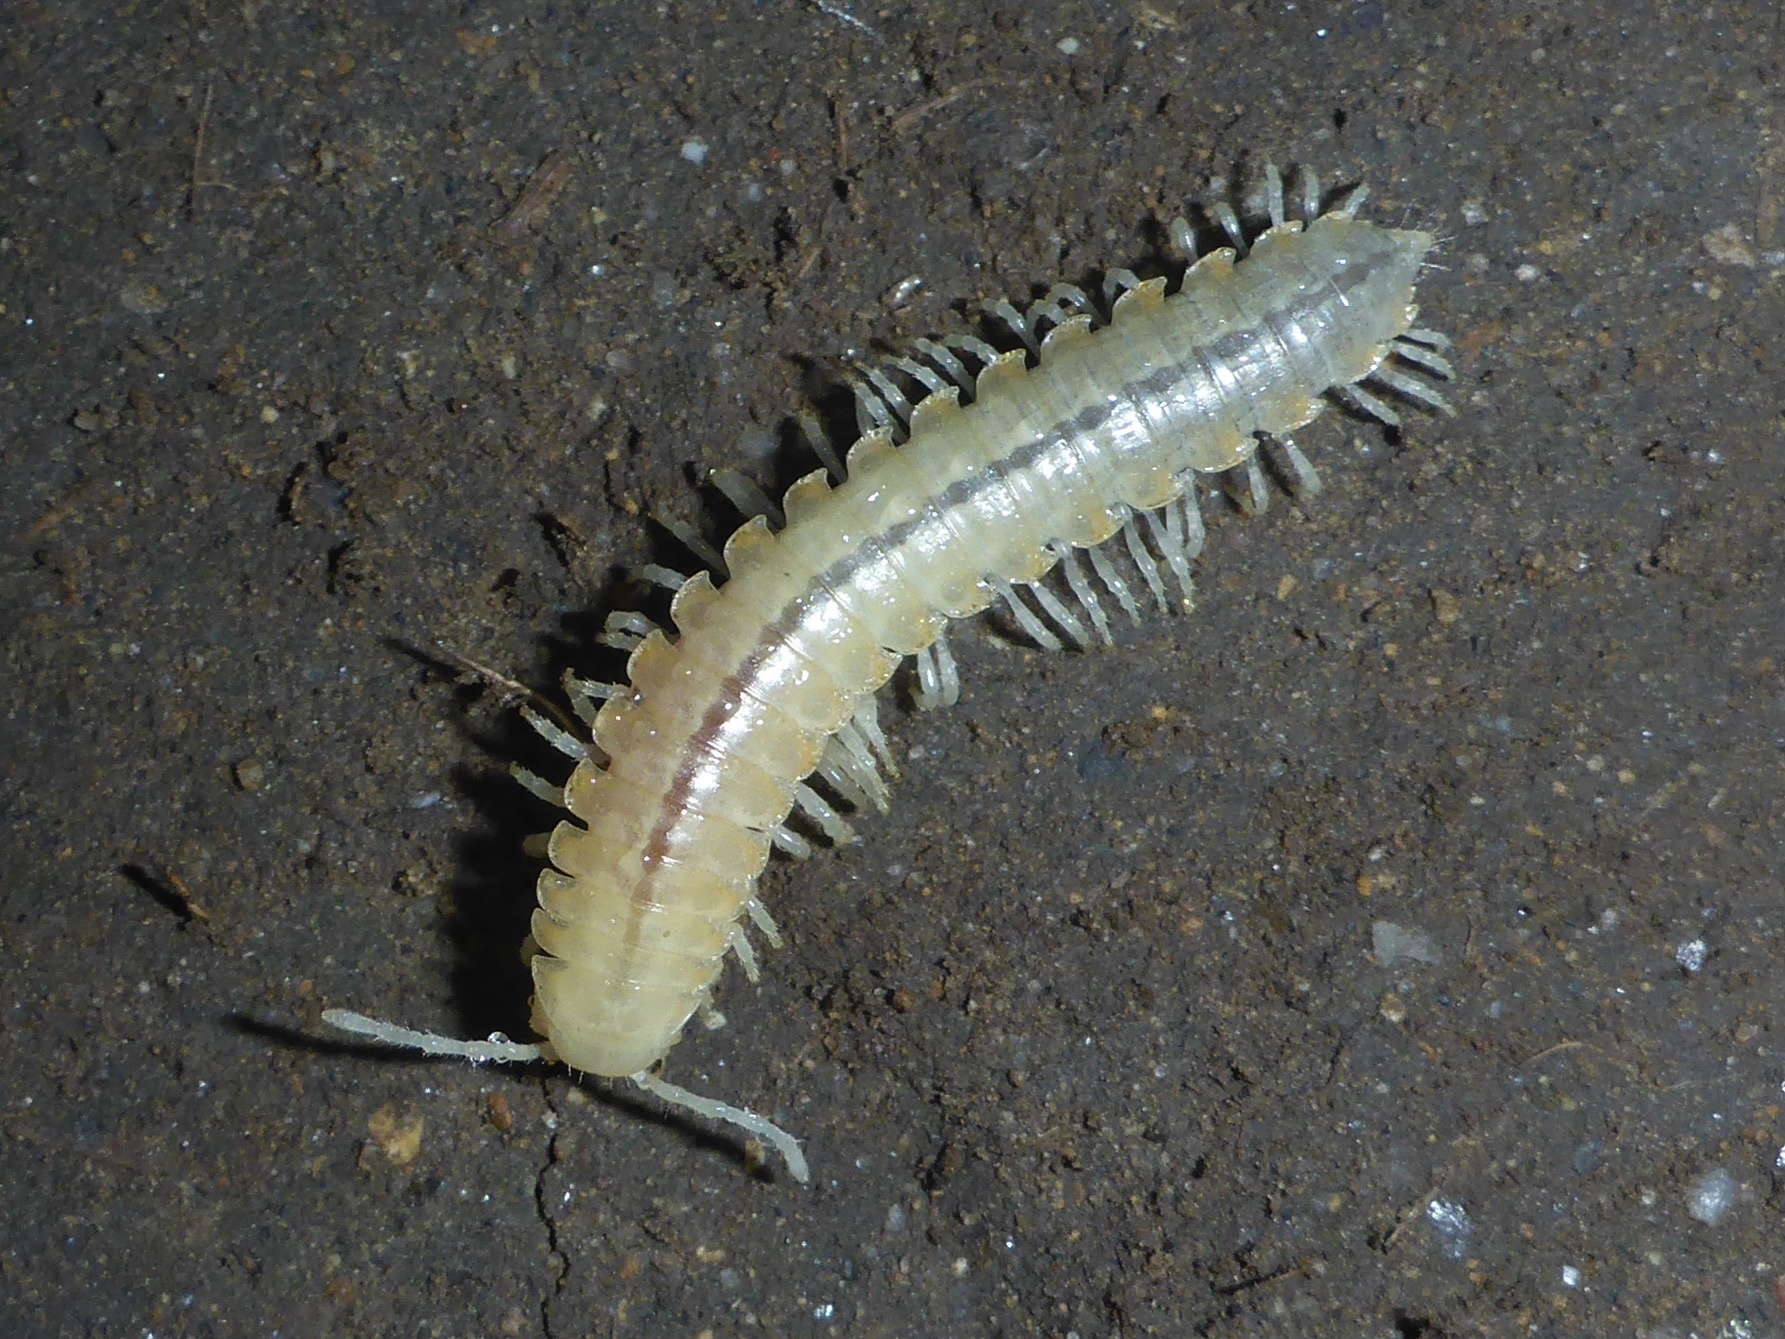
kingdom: Animalia
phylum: Arthropoda
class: Diplopoda
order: Polydesmida
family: Xystodesmidae
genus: Xystocheir
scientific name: Xystocheir dissecta
